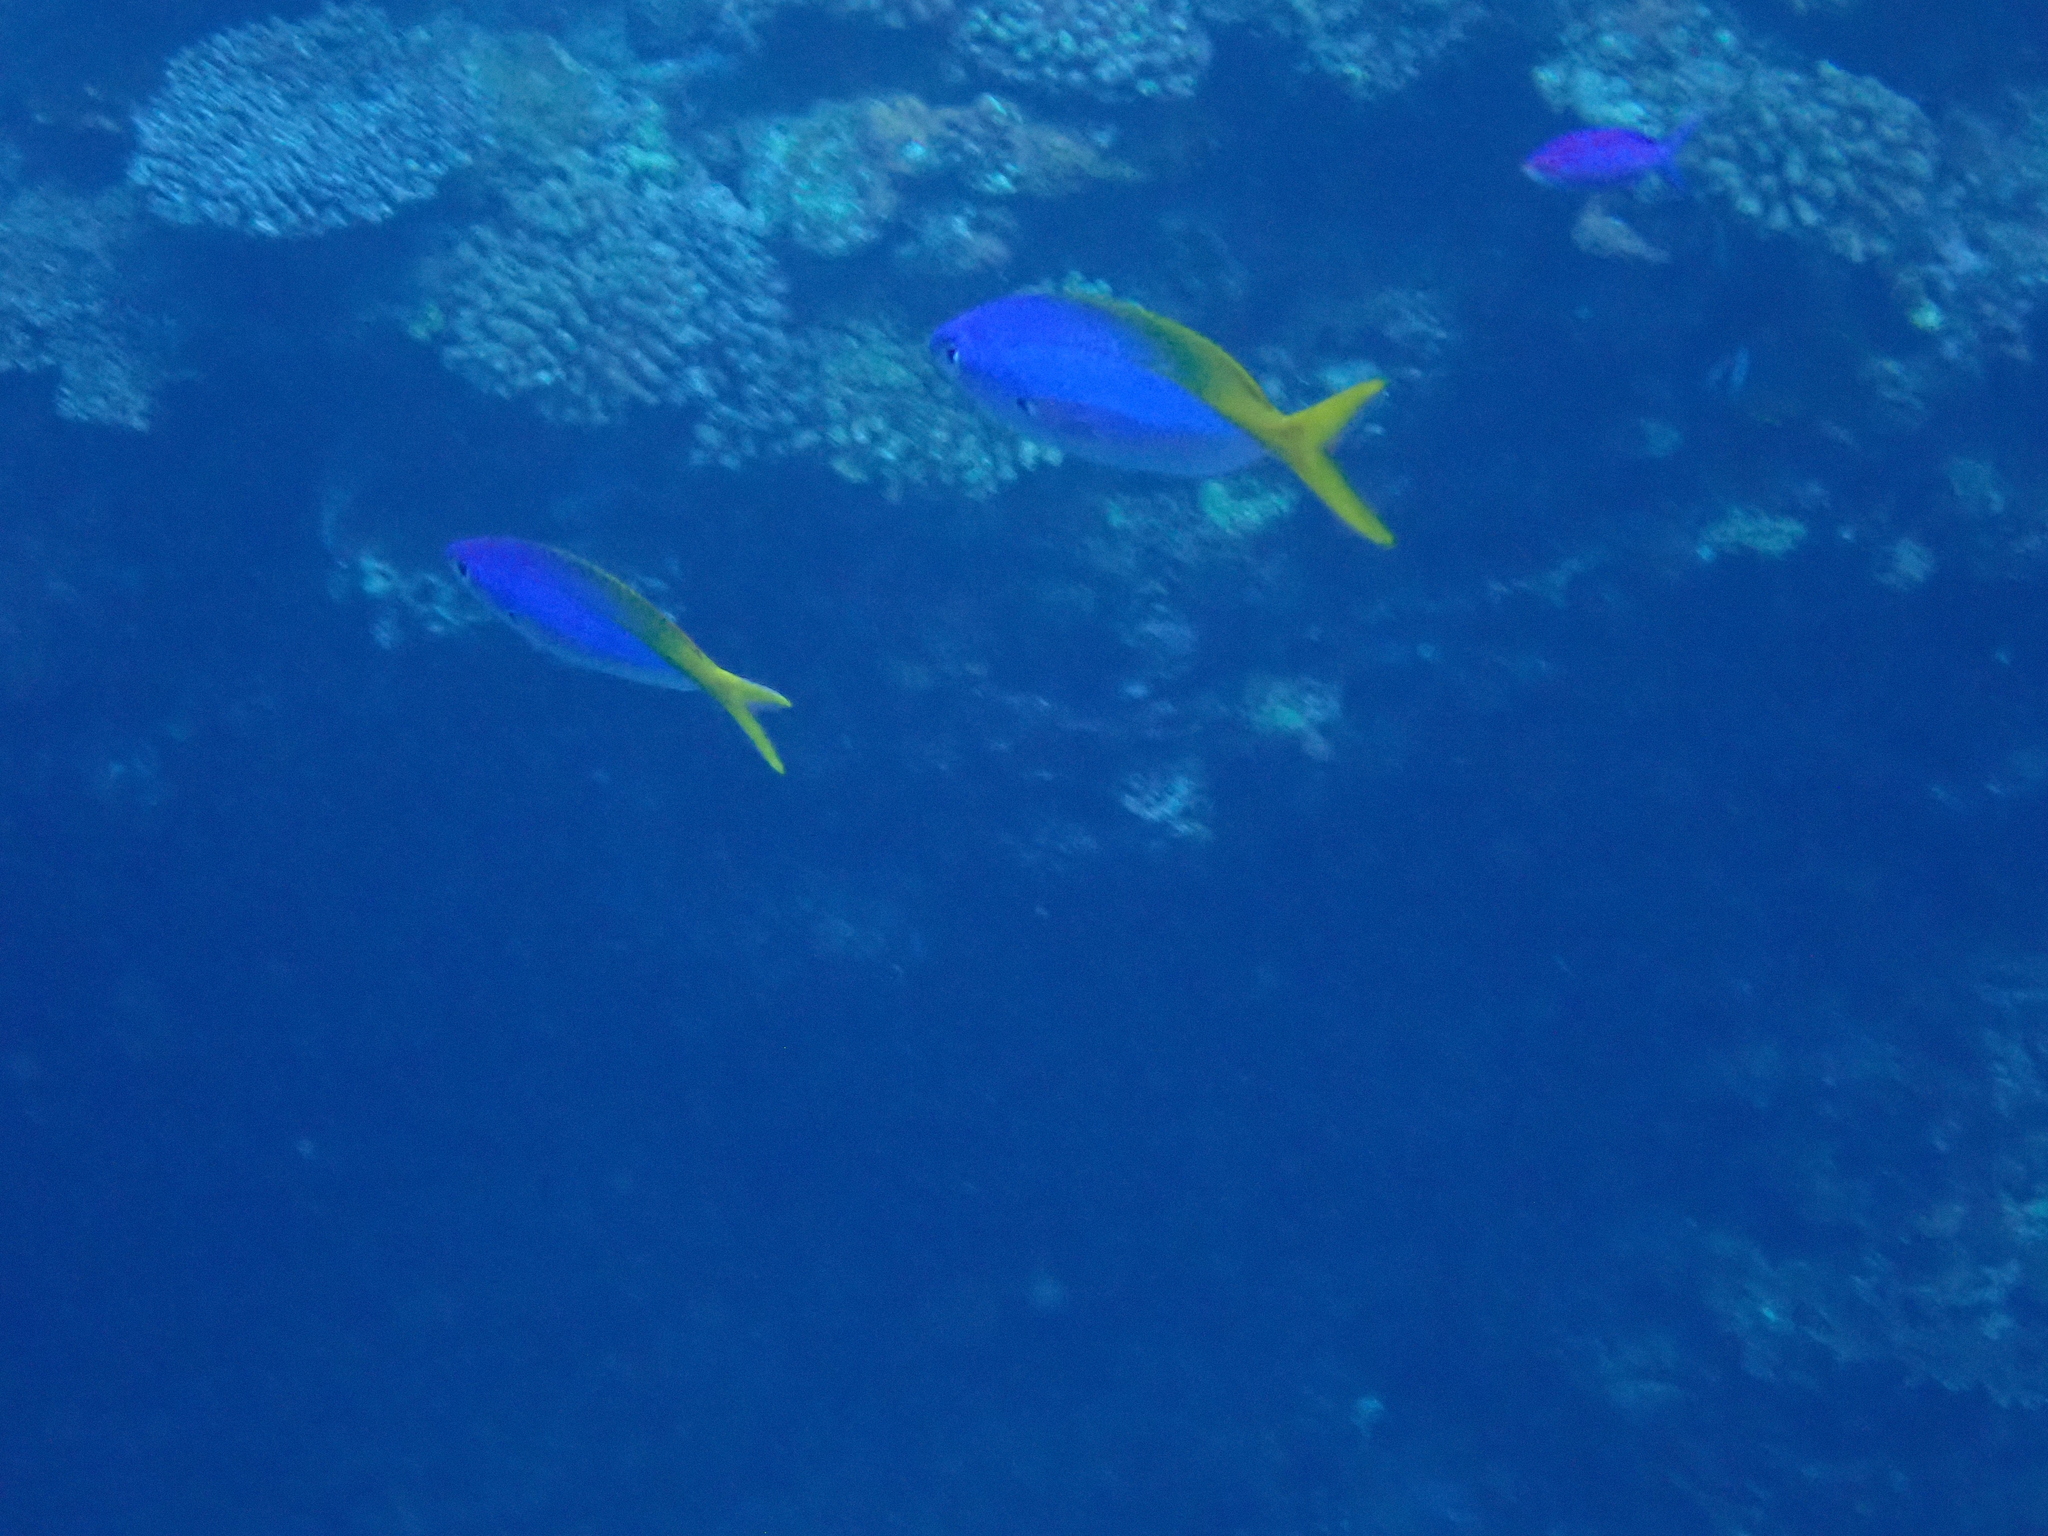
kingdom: Animalia
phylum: Chordata
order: Perciformes
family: Caesionidae
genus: Caesio
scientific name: Caesio teres
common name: Yellow and blueback fusilier
